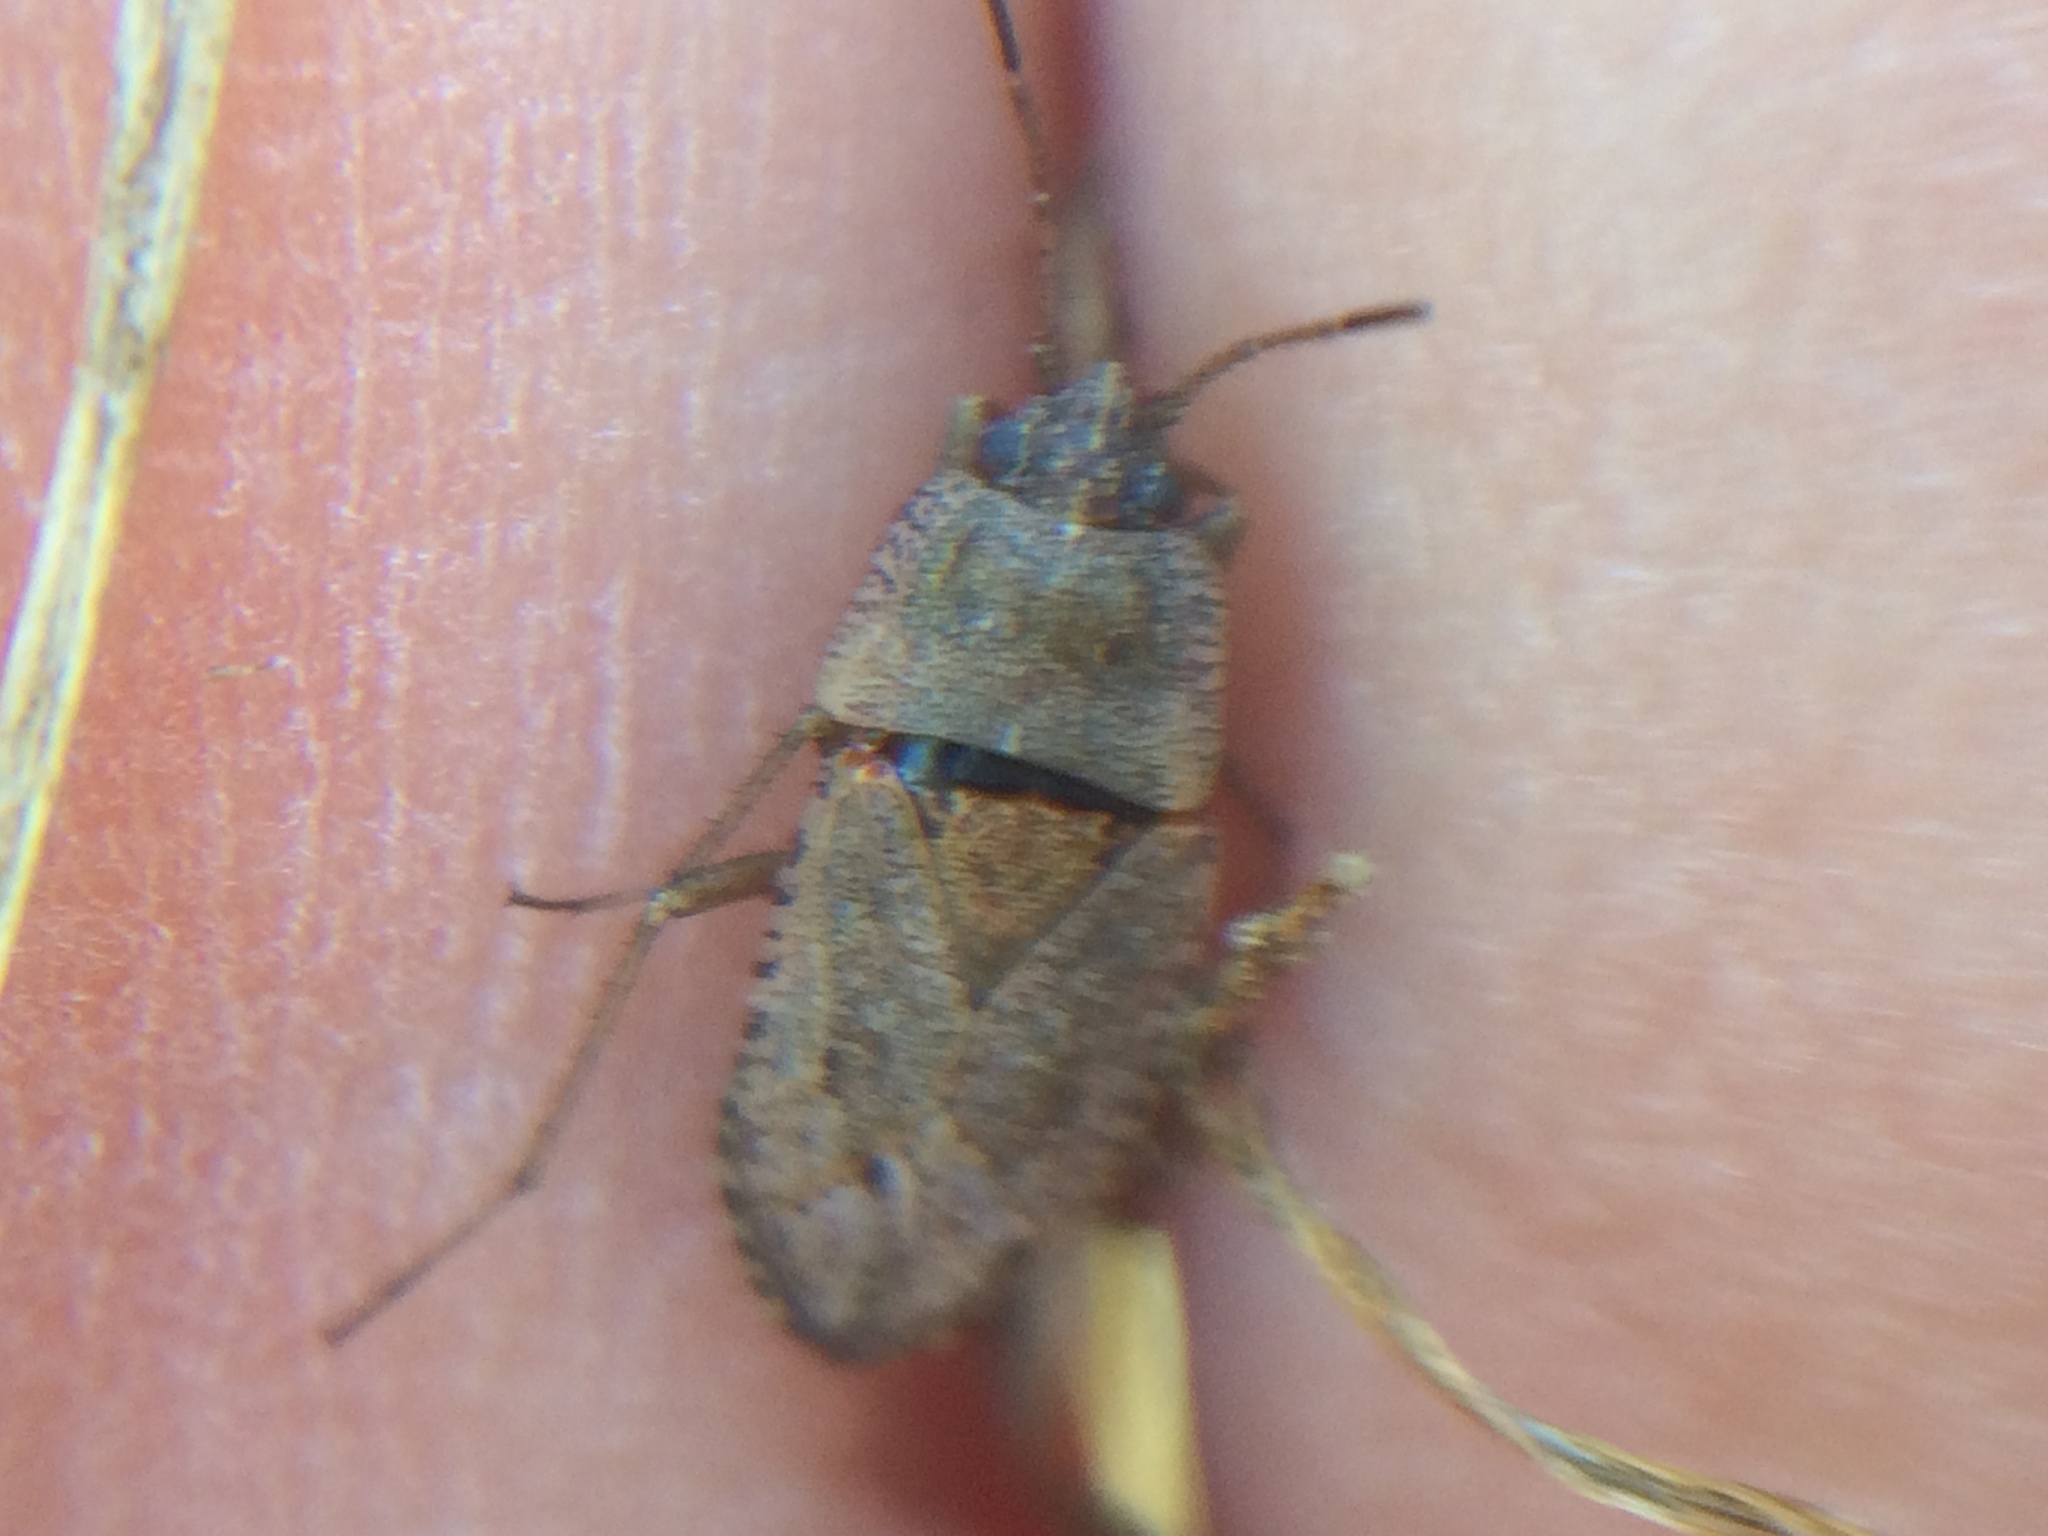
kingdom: Animalia
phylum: Arthropoda
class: Insecta
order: Hemiptera
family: Rhyparochromidae
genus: Emblethis
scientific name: Emblethis vicarius
